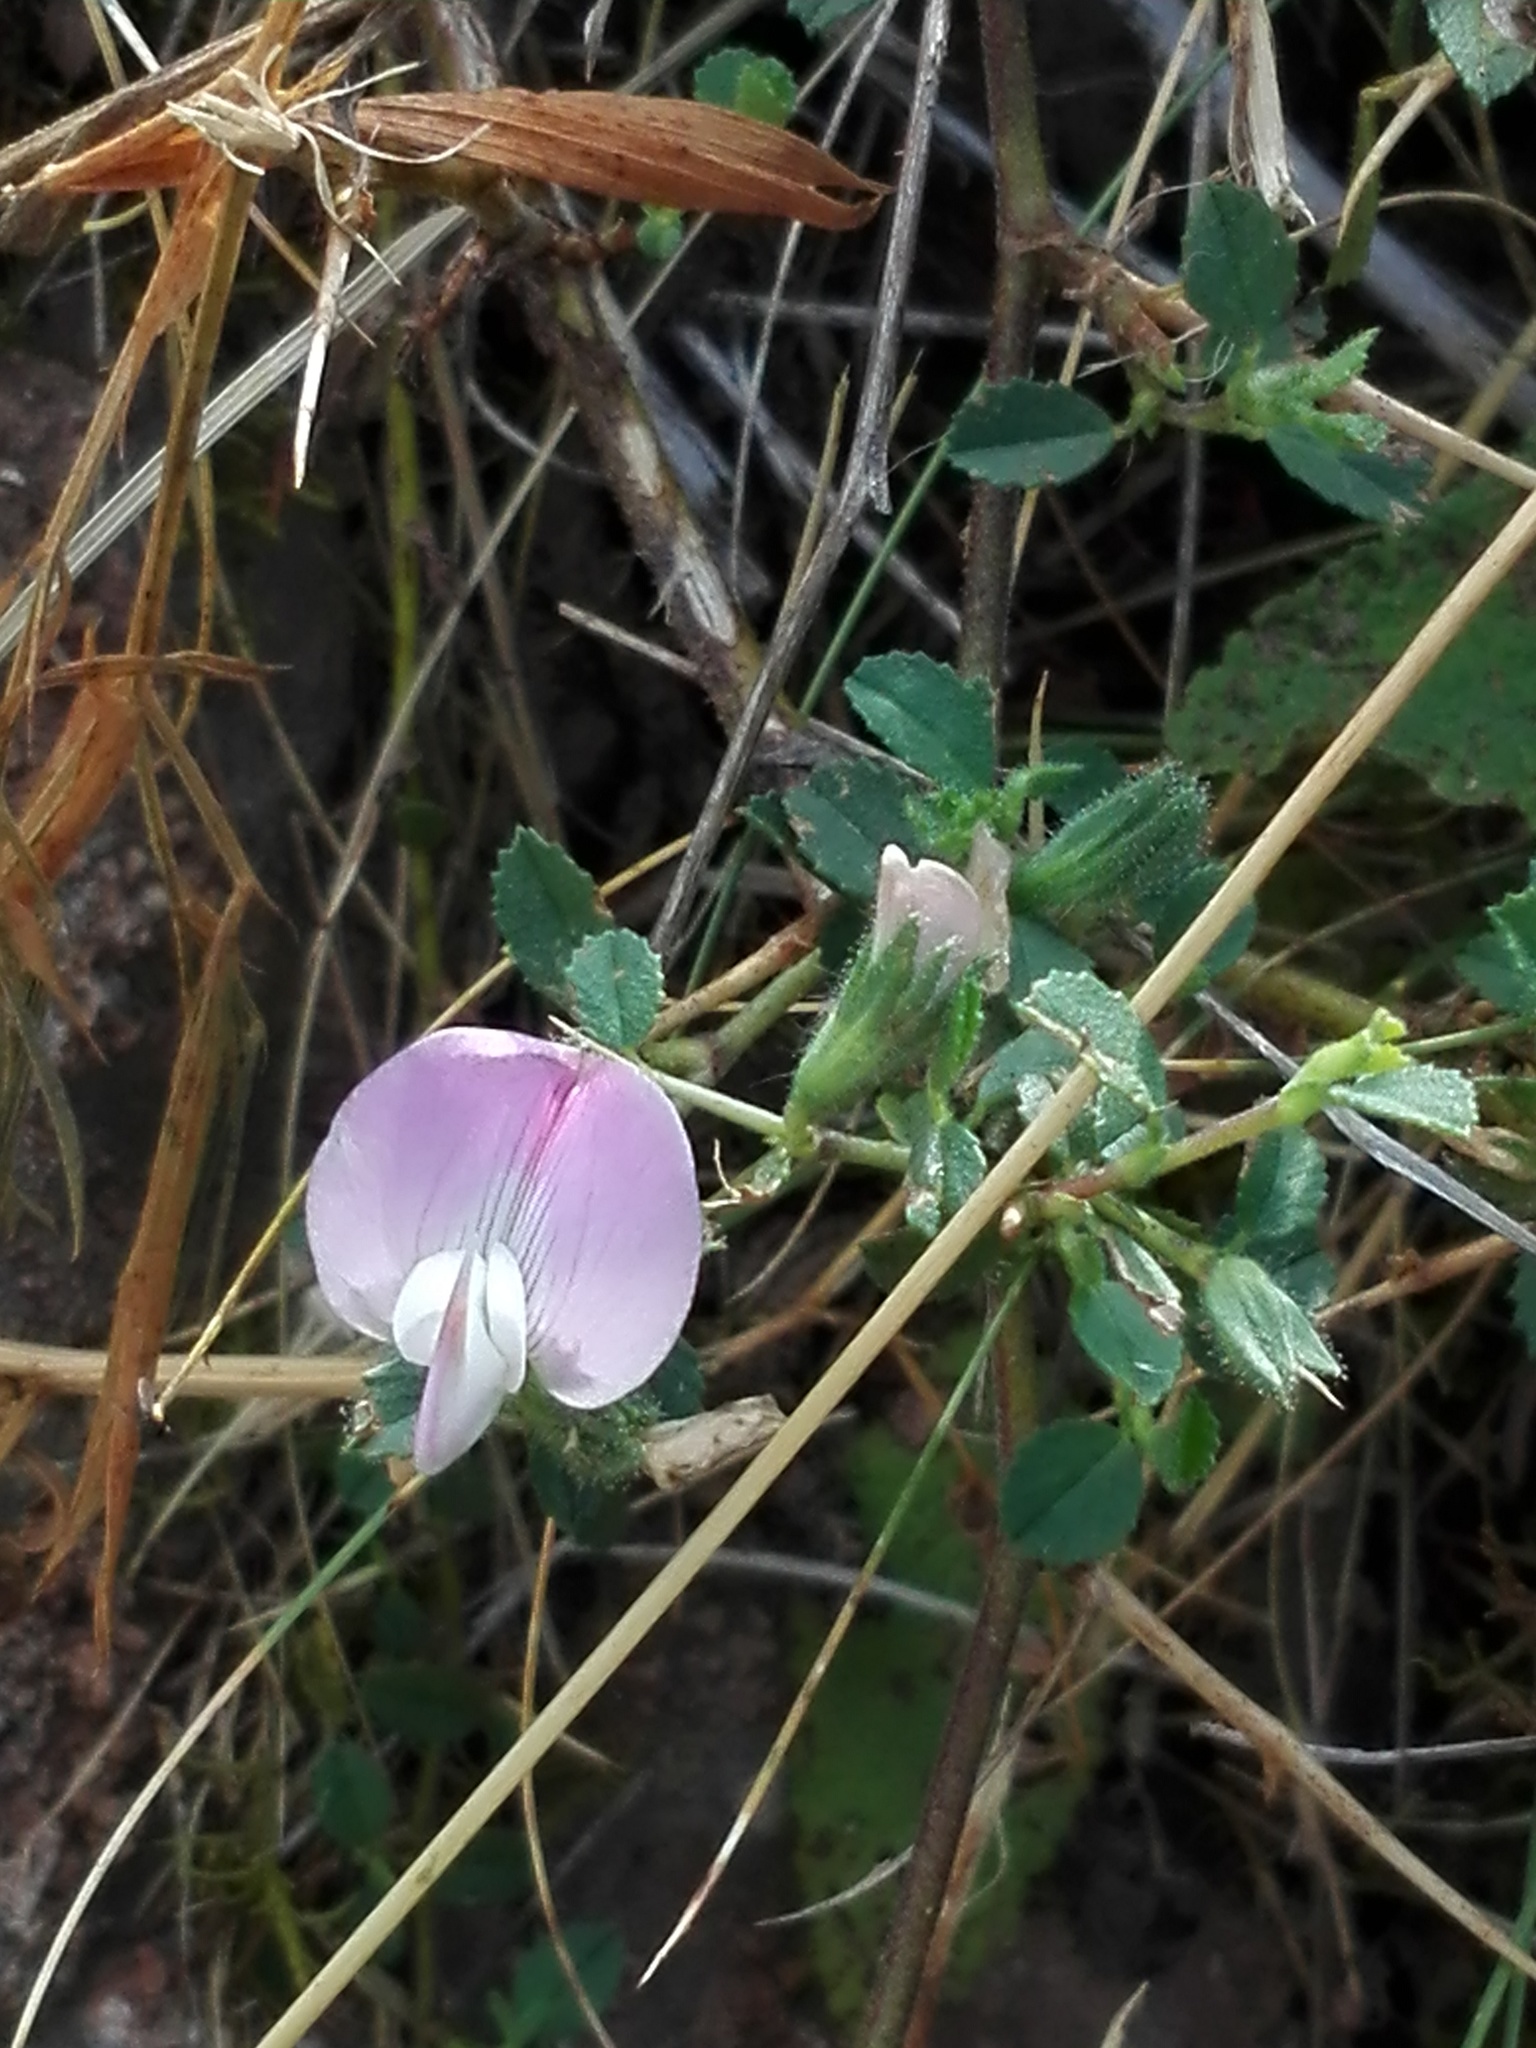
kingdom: Plantae
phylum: Tracheophyta
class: Magnoliopsida
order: Fabales
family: Fabaceae
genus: Ononis
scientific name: Ononis spinosa
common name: Spiny restharrow
